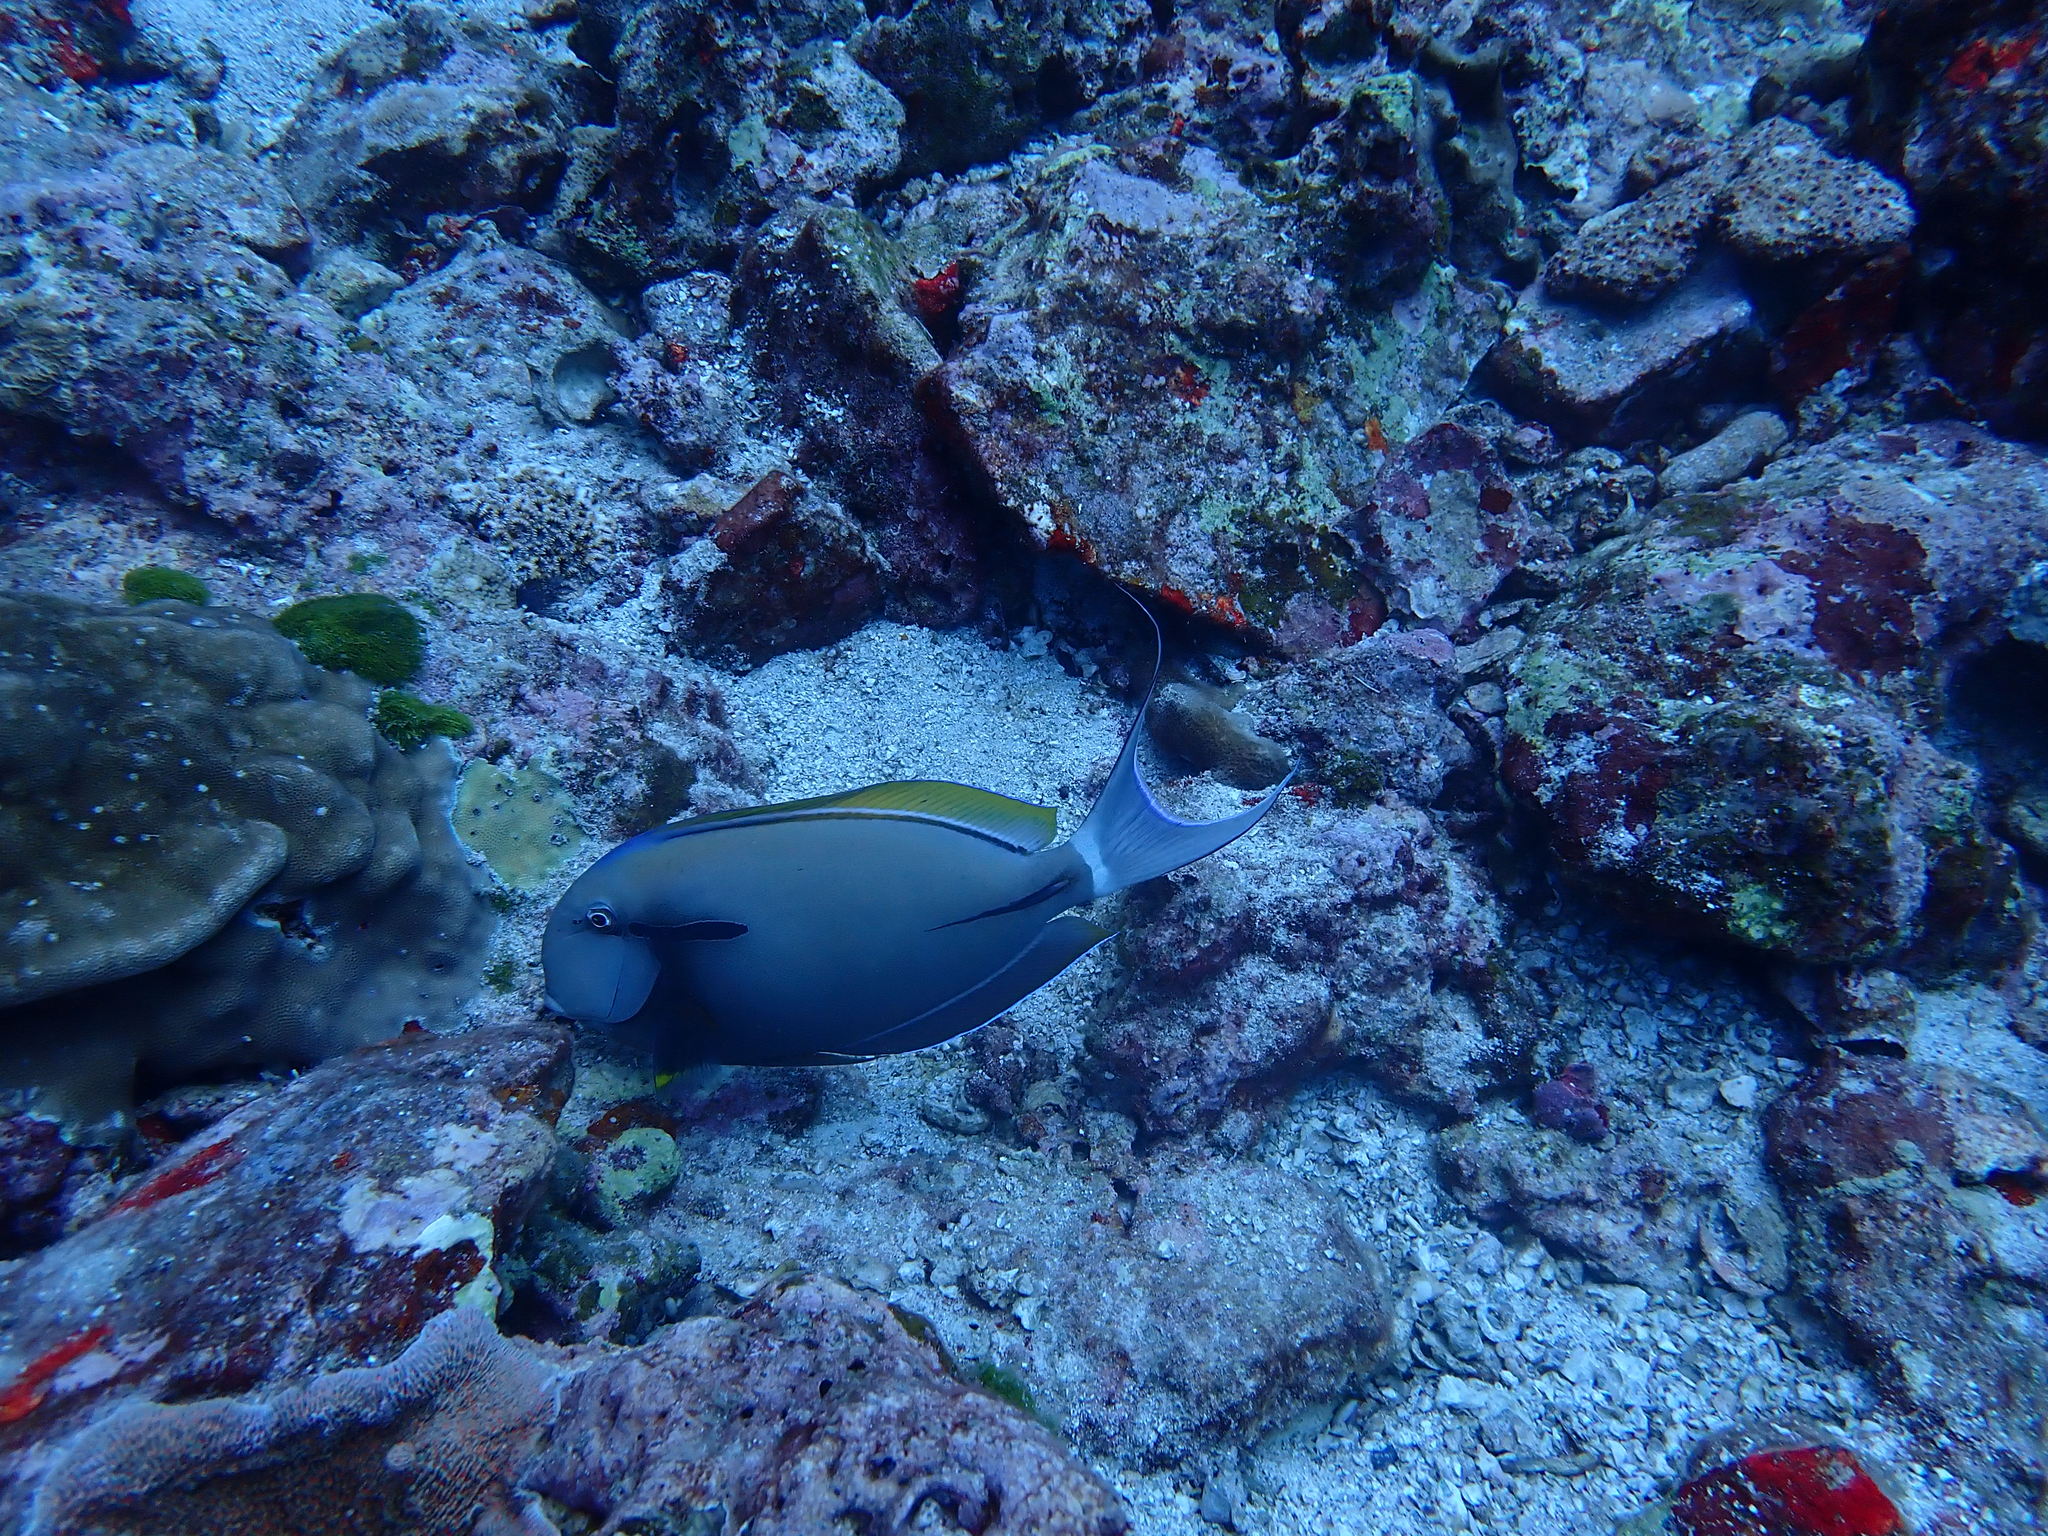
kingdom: Animalia
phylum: Chordata
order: Perciformes
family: Acanthuridae
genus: Acanthurus
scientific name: Acanthurus nigricauda
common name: Black-barred surgeonfish
